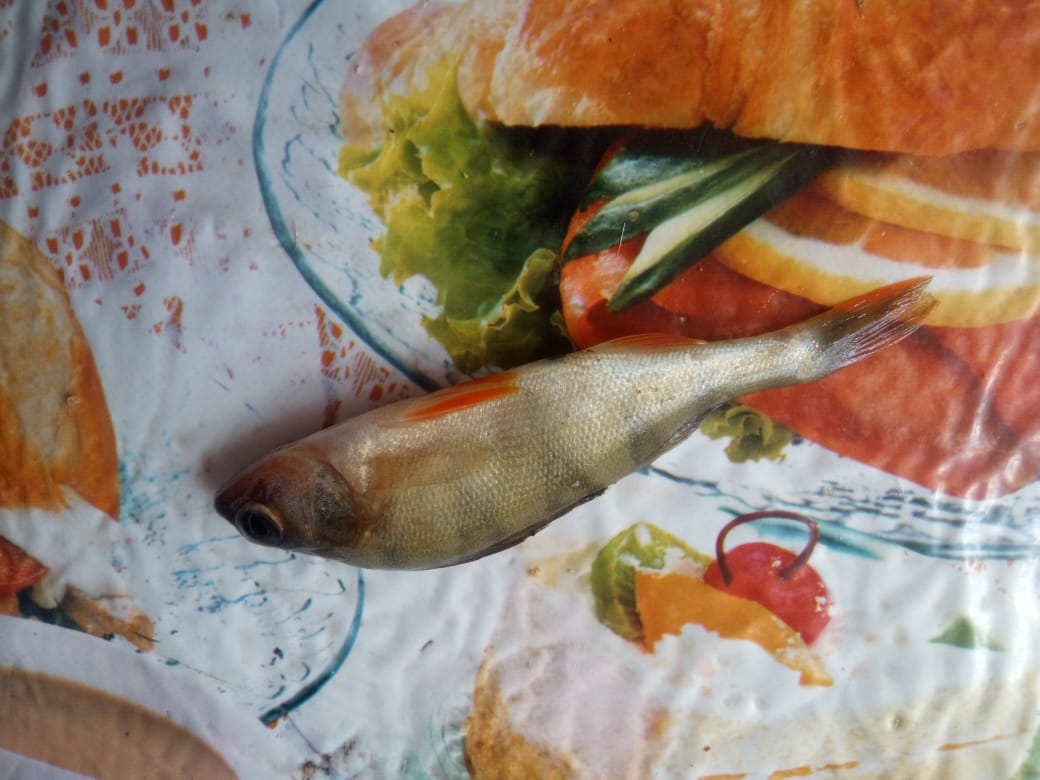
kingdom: Animalia
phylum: Chordata
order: Perciformes
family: Percidae
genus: Perca
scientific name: Perca fluviatilis
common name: Perch
